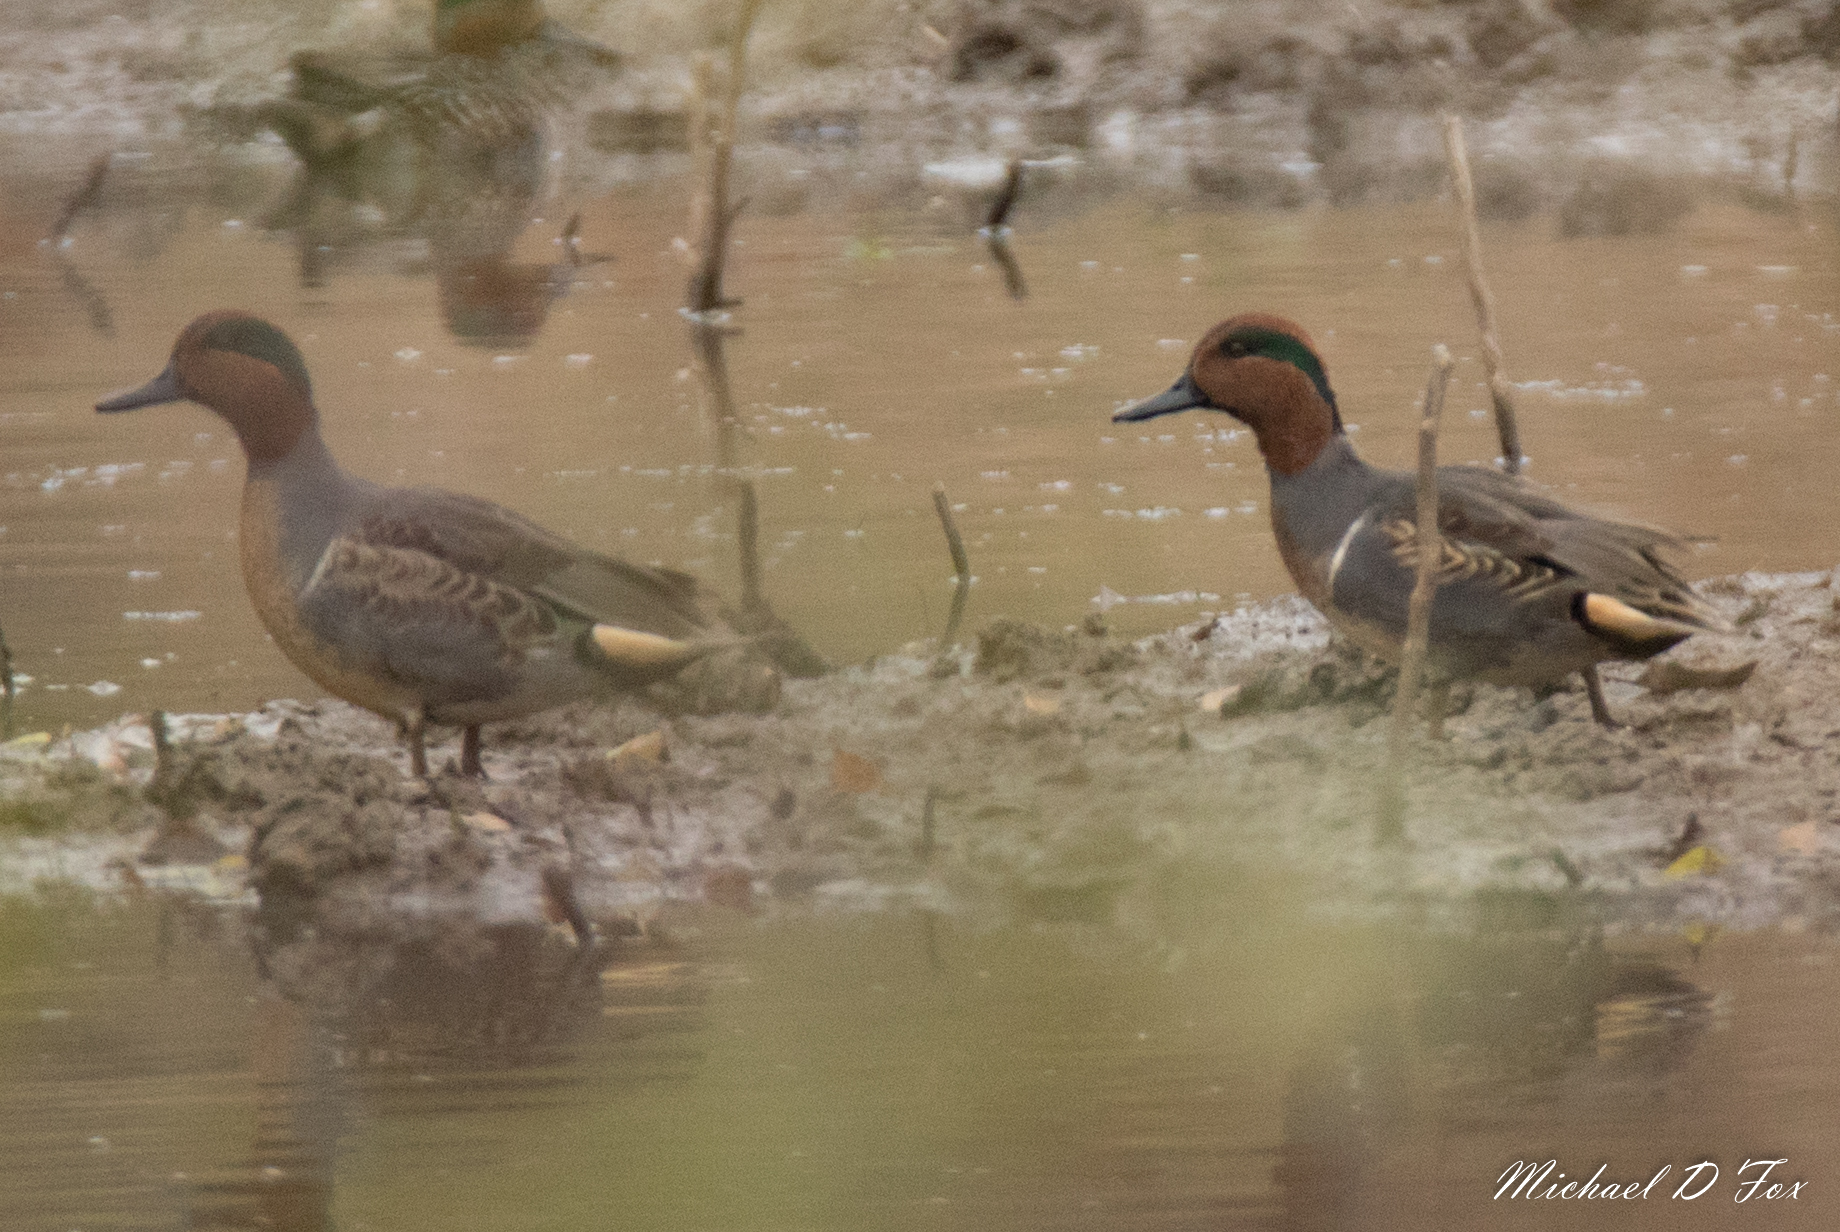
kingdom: Animalia
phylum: Chordata
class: Aves
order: Anseriformes
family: Anatidae
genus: Anas
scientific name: Anas crecca
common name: Eurasian teal
